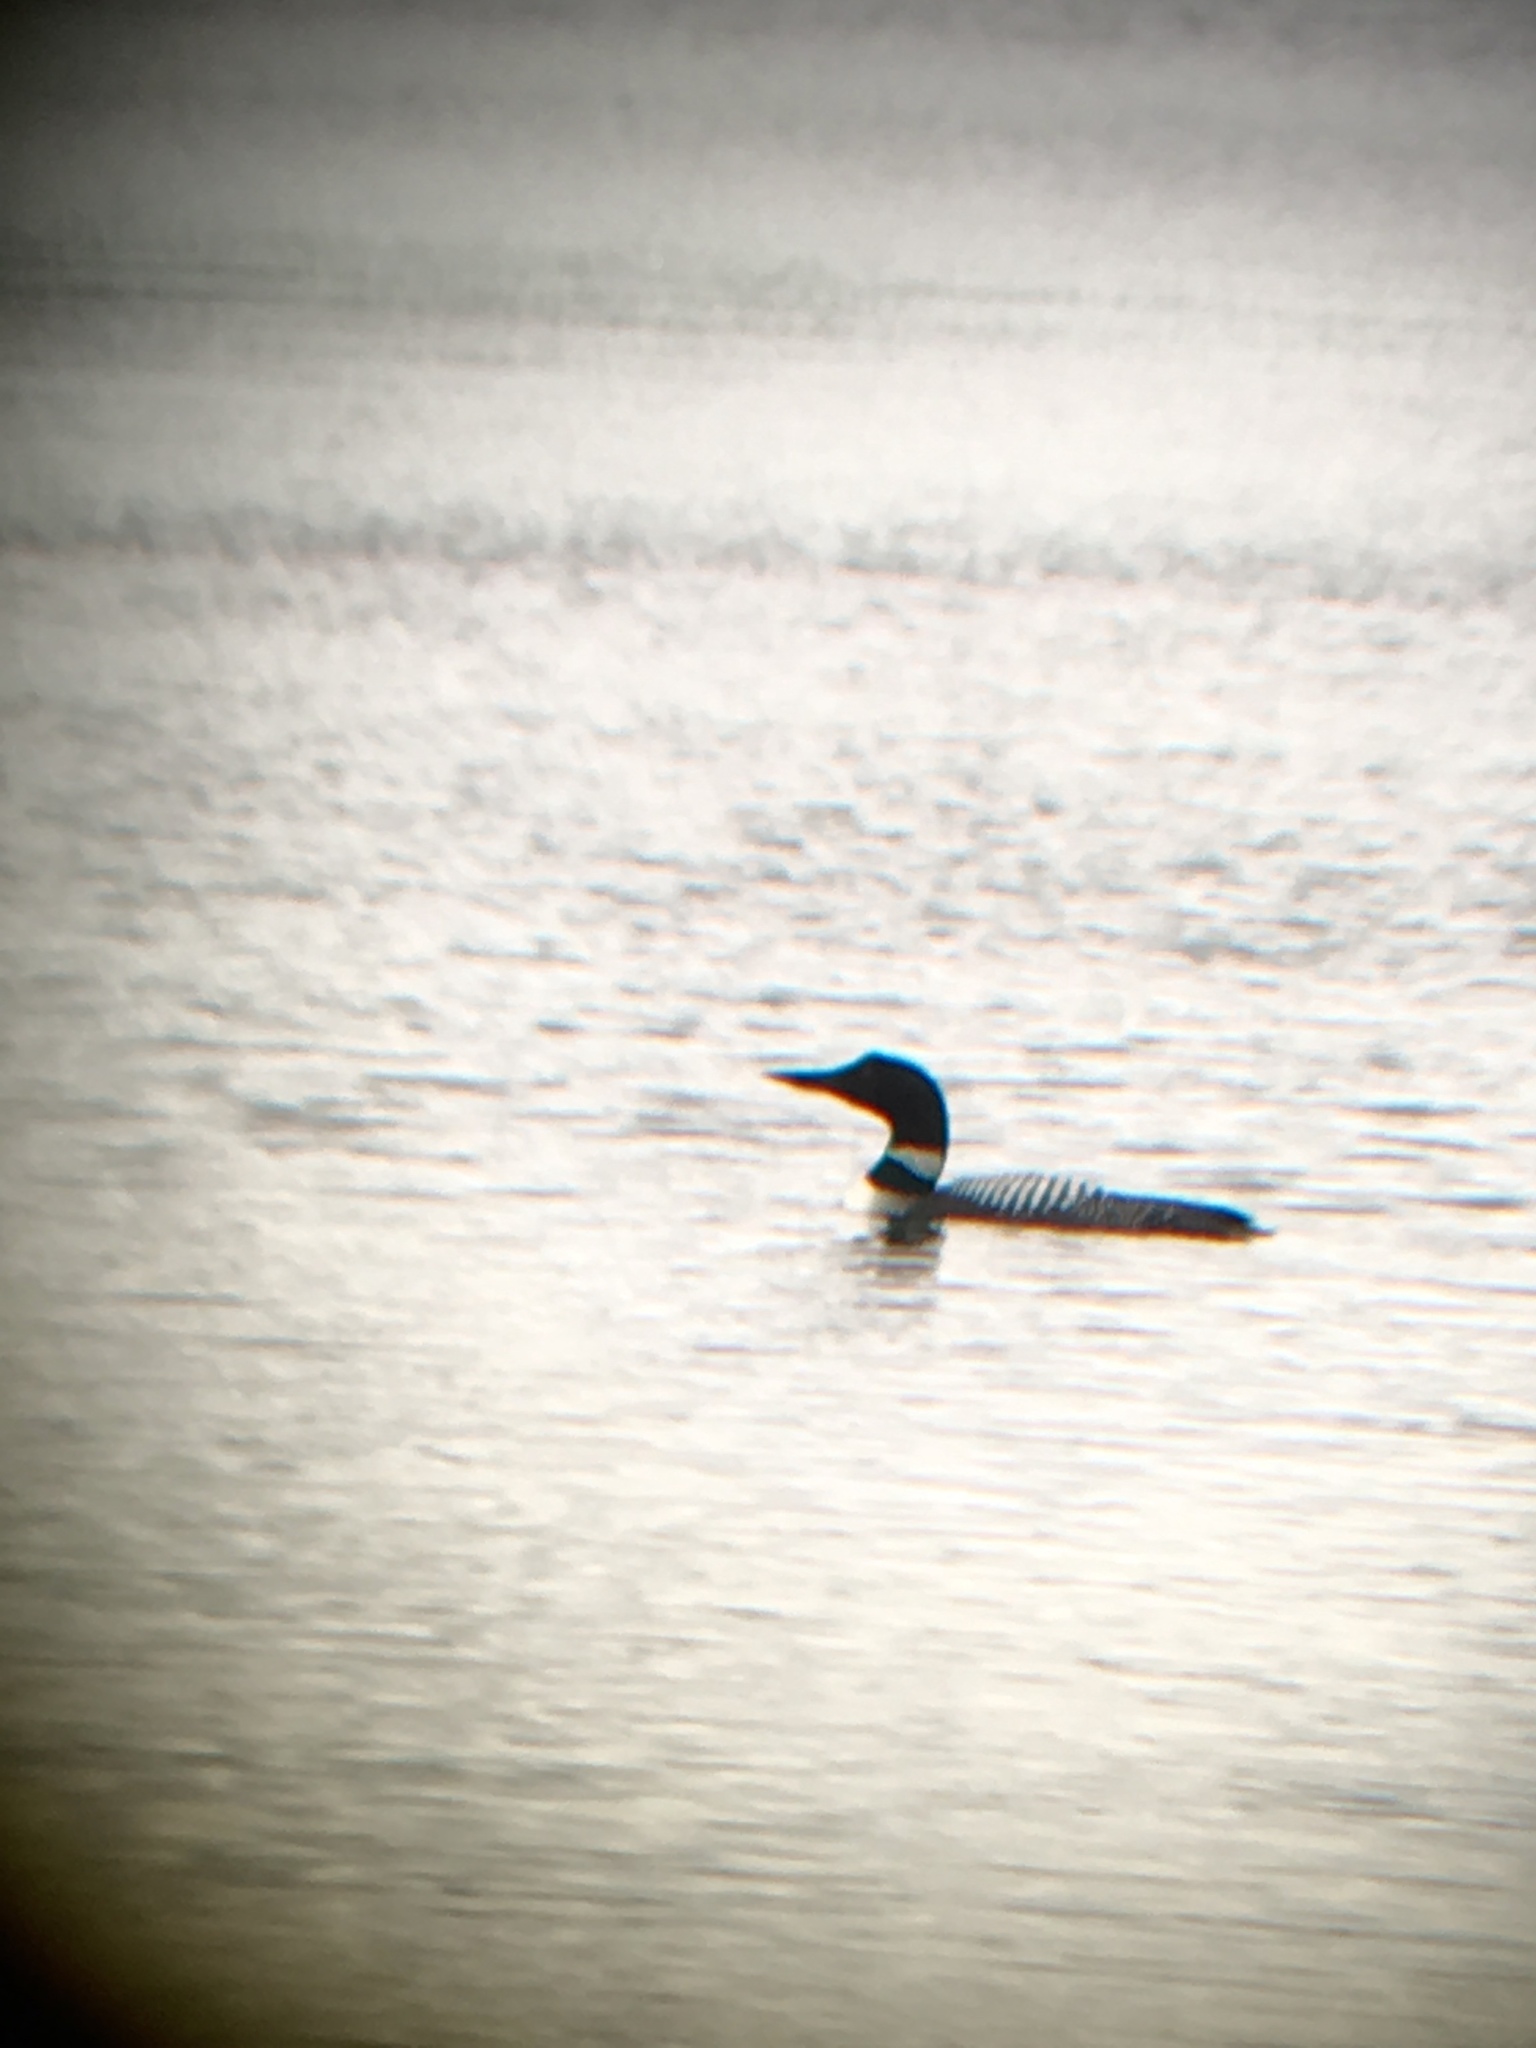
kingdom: Animalia
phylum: Chordata
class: Aves
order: Gaviiformes
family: Gaviidae
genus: Gavia
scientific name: Gavia immer
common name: Common loon
